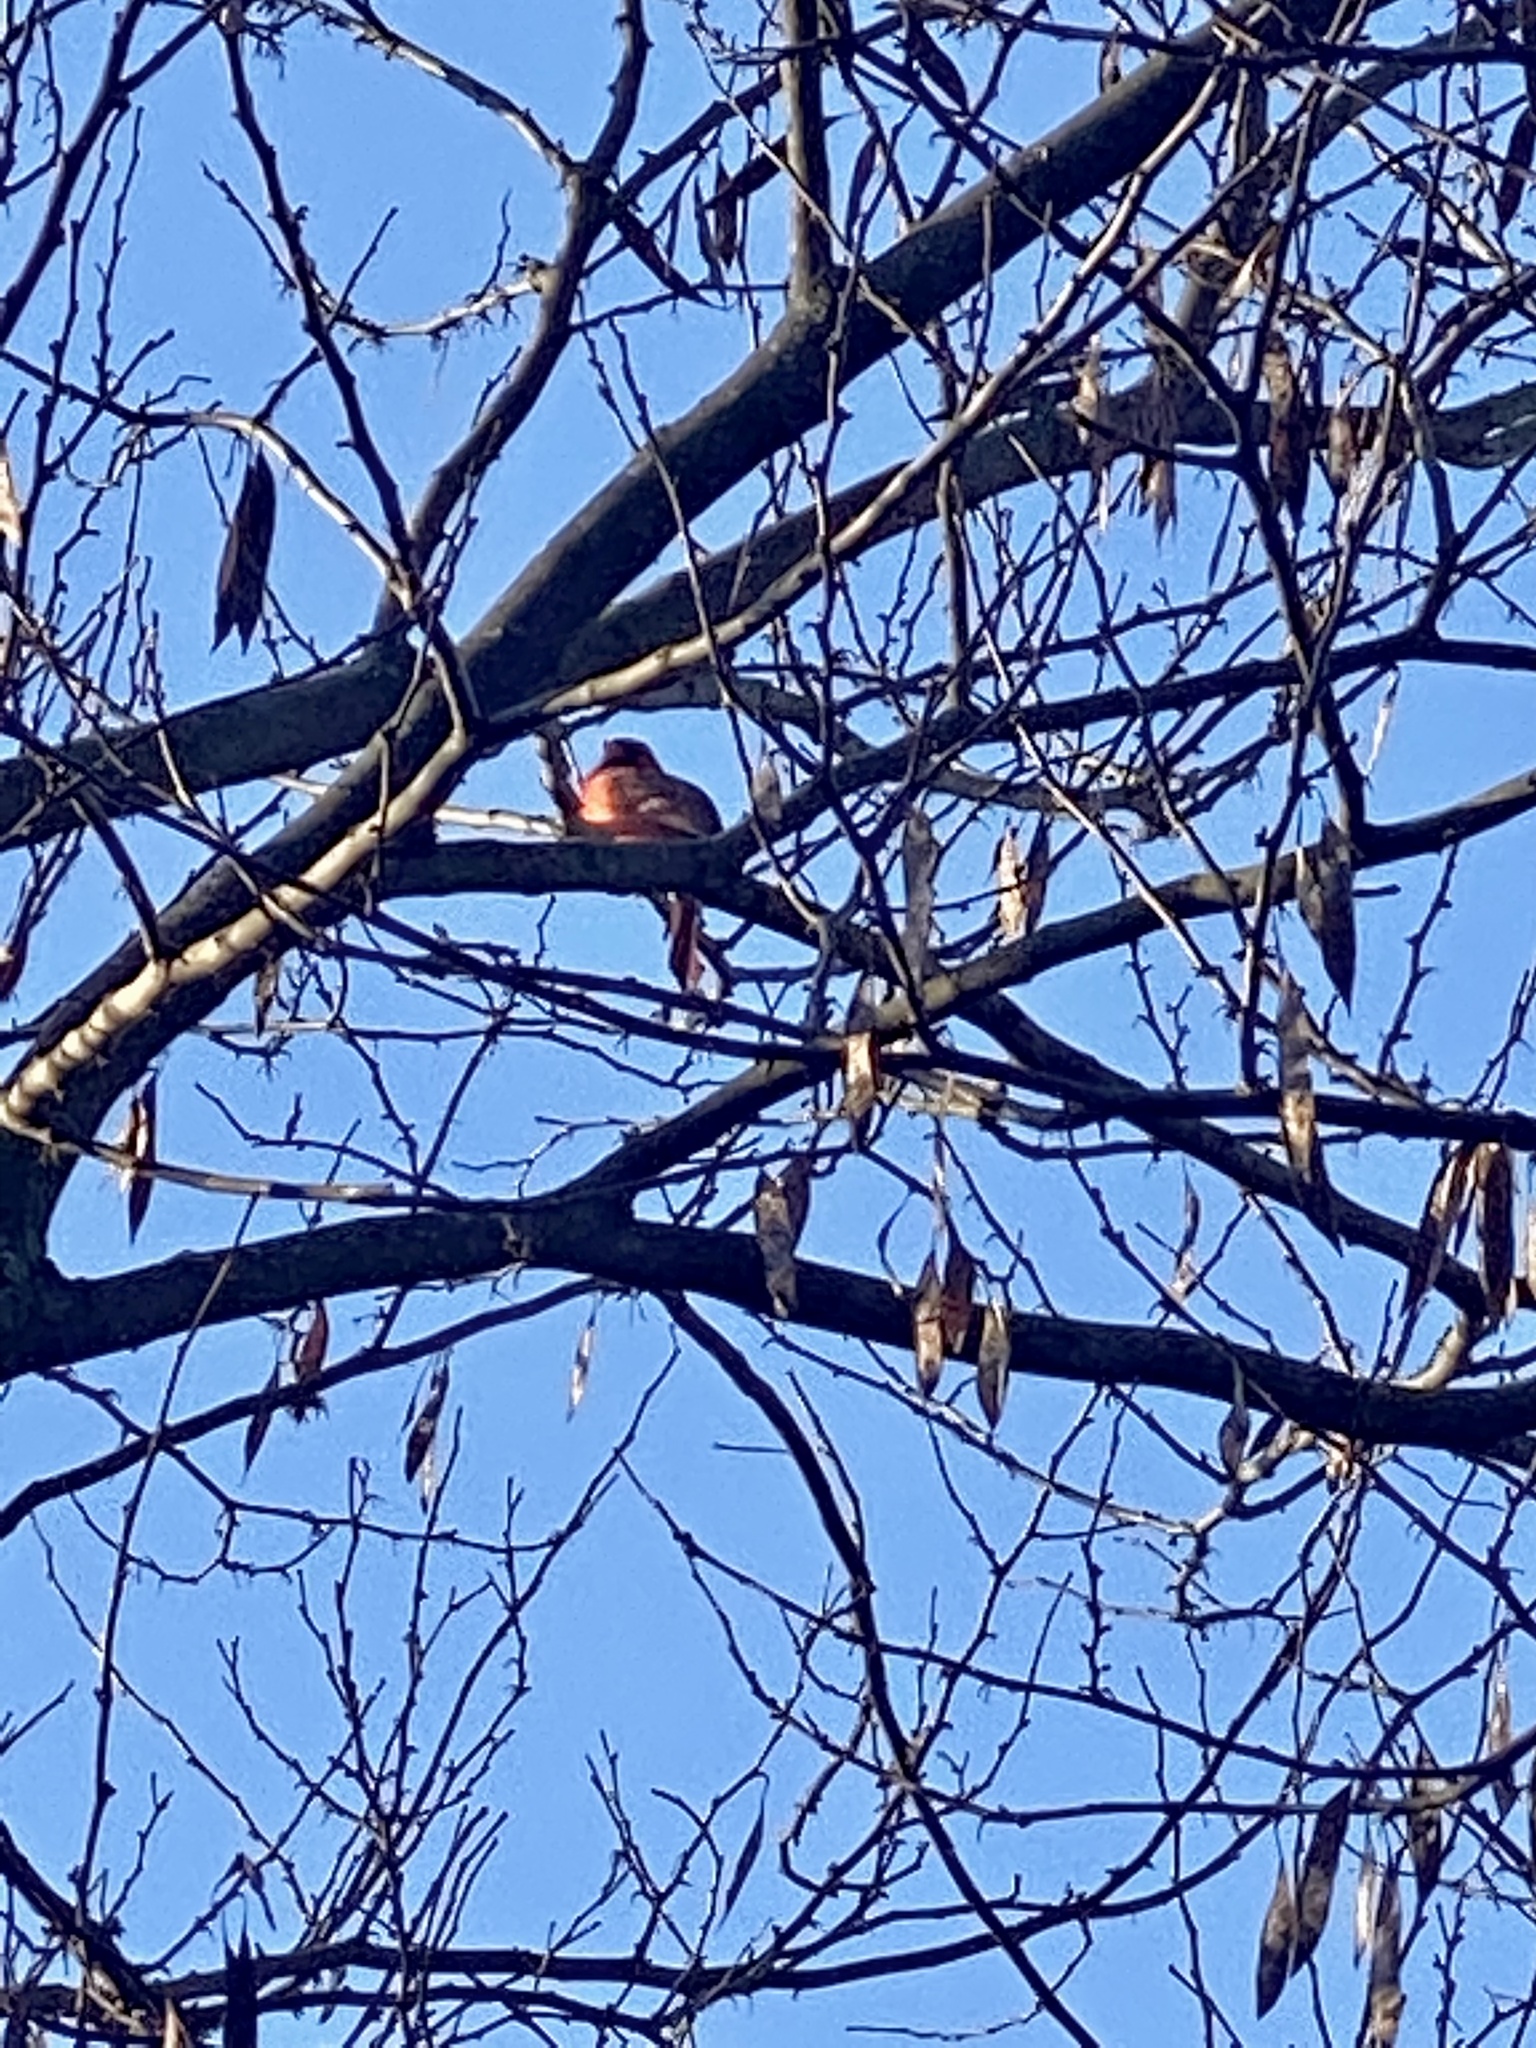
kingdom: Animalia
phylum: Chordata
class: Aves
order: Passeriformes
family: Cardinalidae
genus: Cardinalis
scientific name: Cardinalis cardinalis
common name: Northern cardinal
